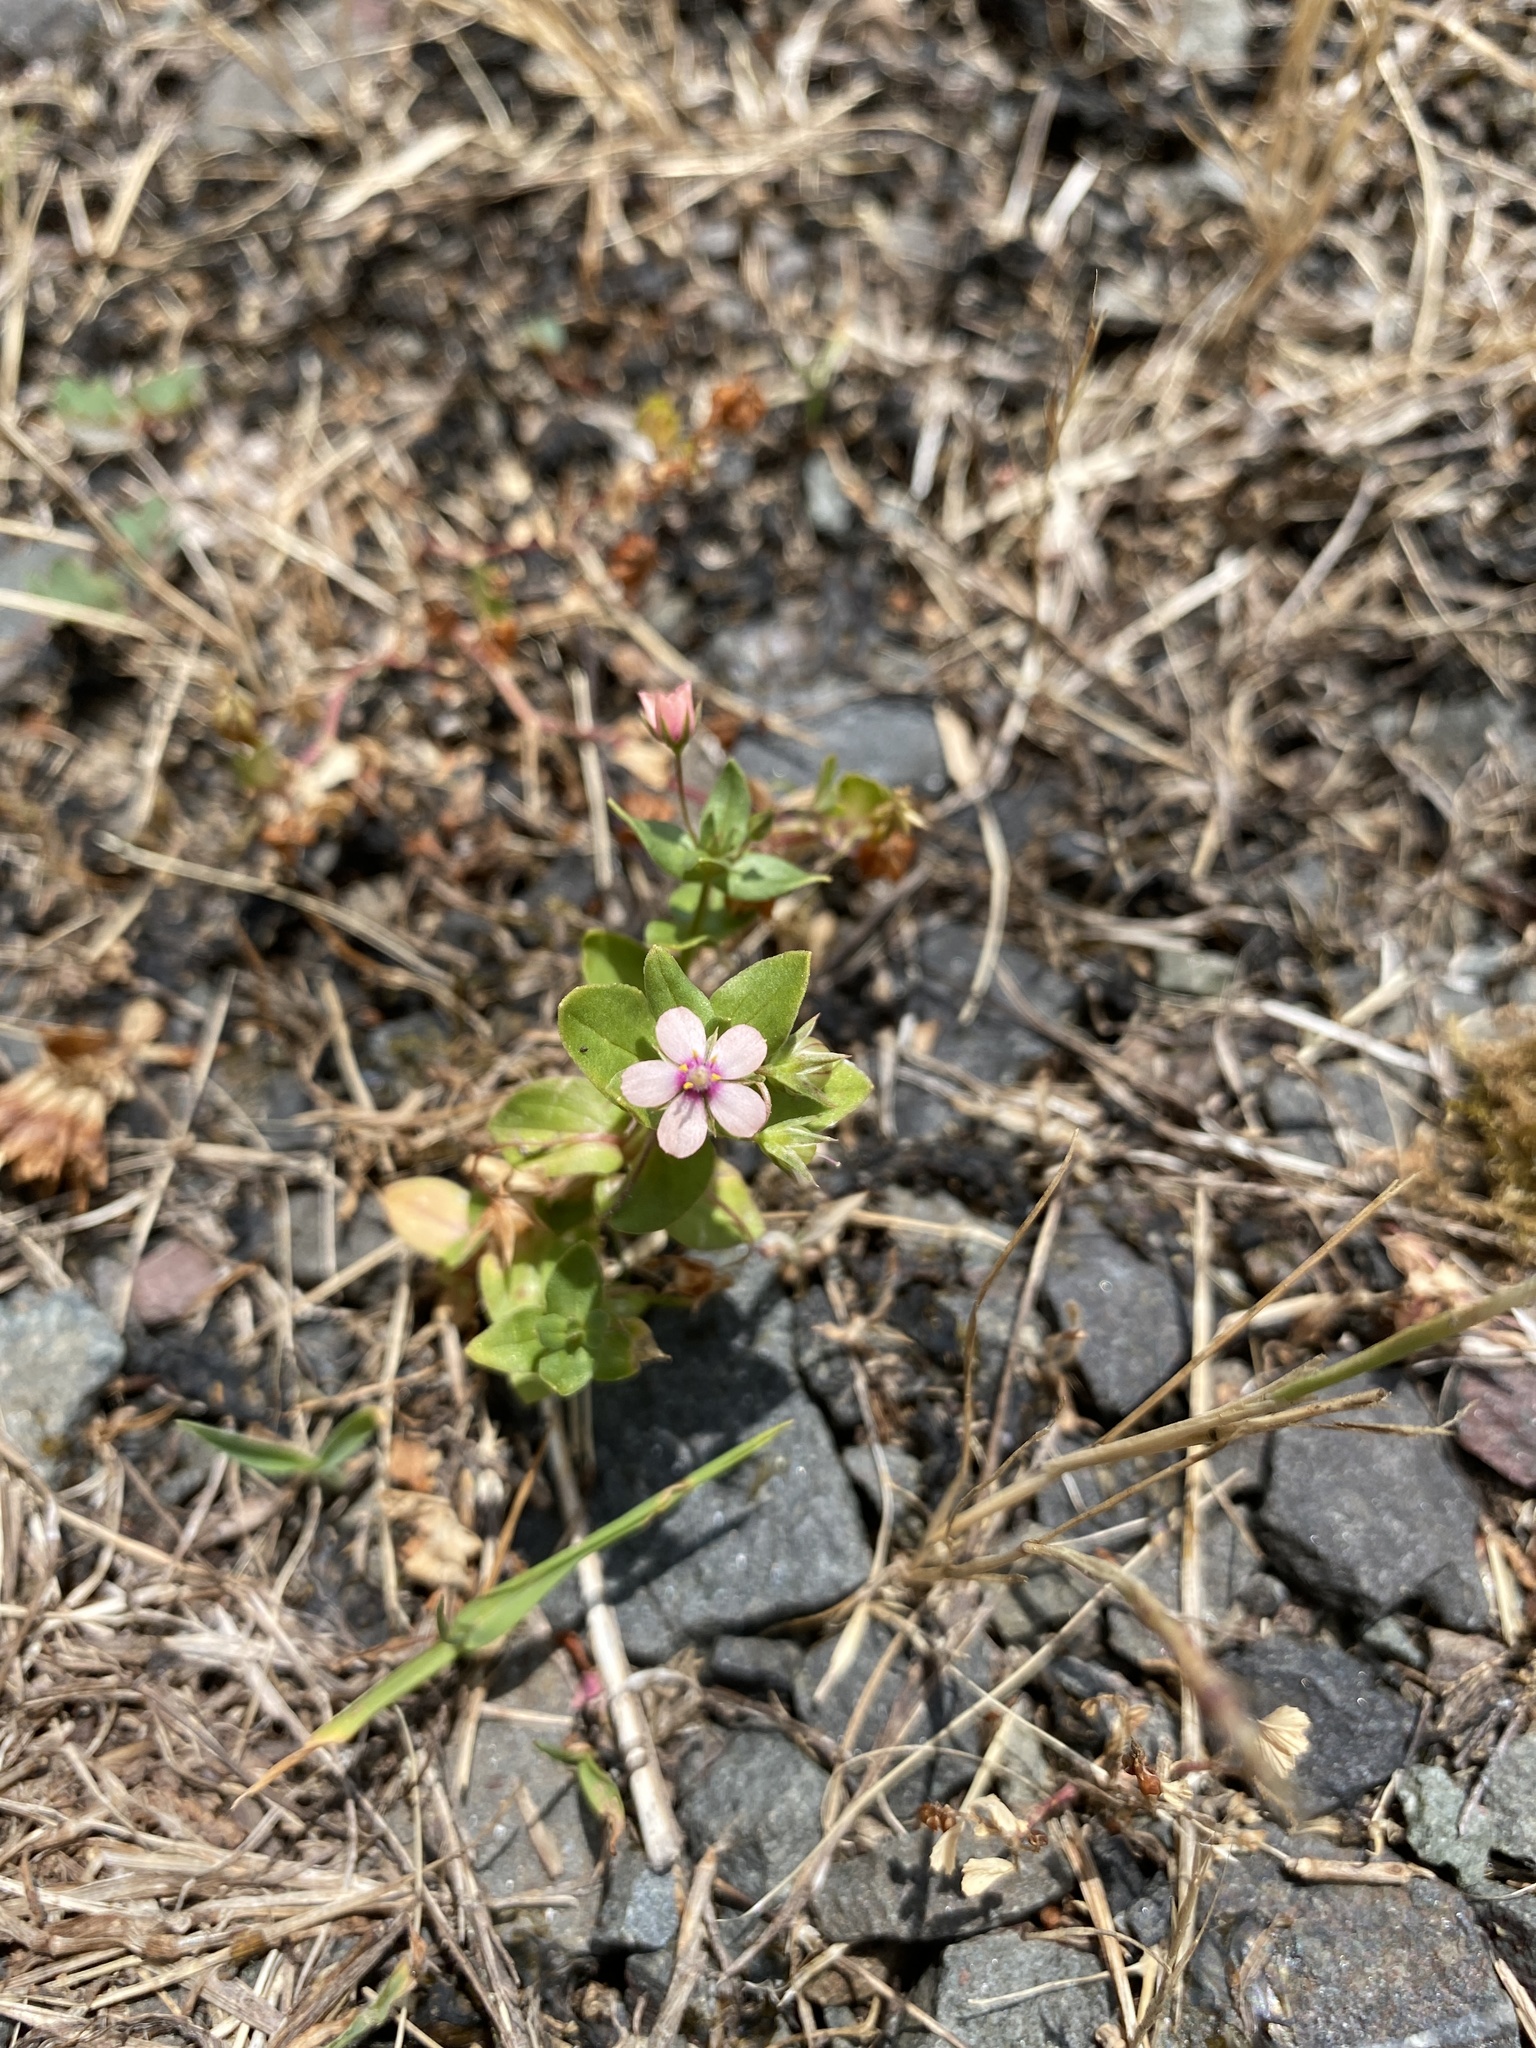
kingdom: Plantae
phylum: Tracheophyta
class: Magnoliopsida
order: Ericales
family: Primulaceae
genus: Lysimachia
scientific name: Lysimachia arvensis
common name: Scarlet pimpernel
